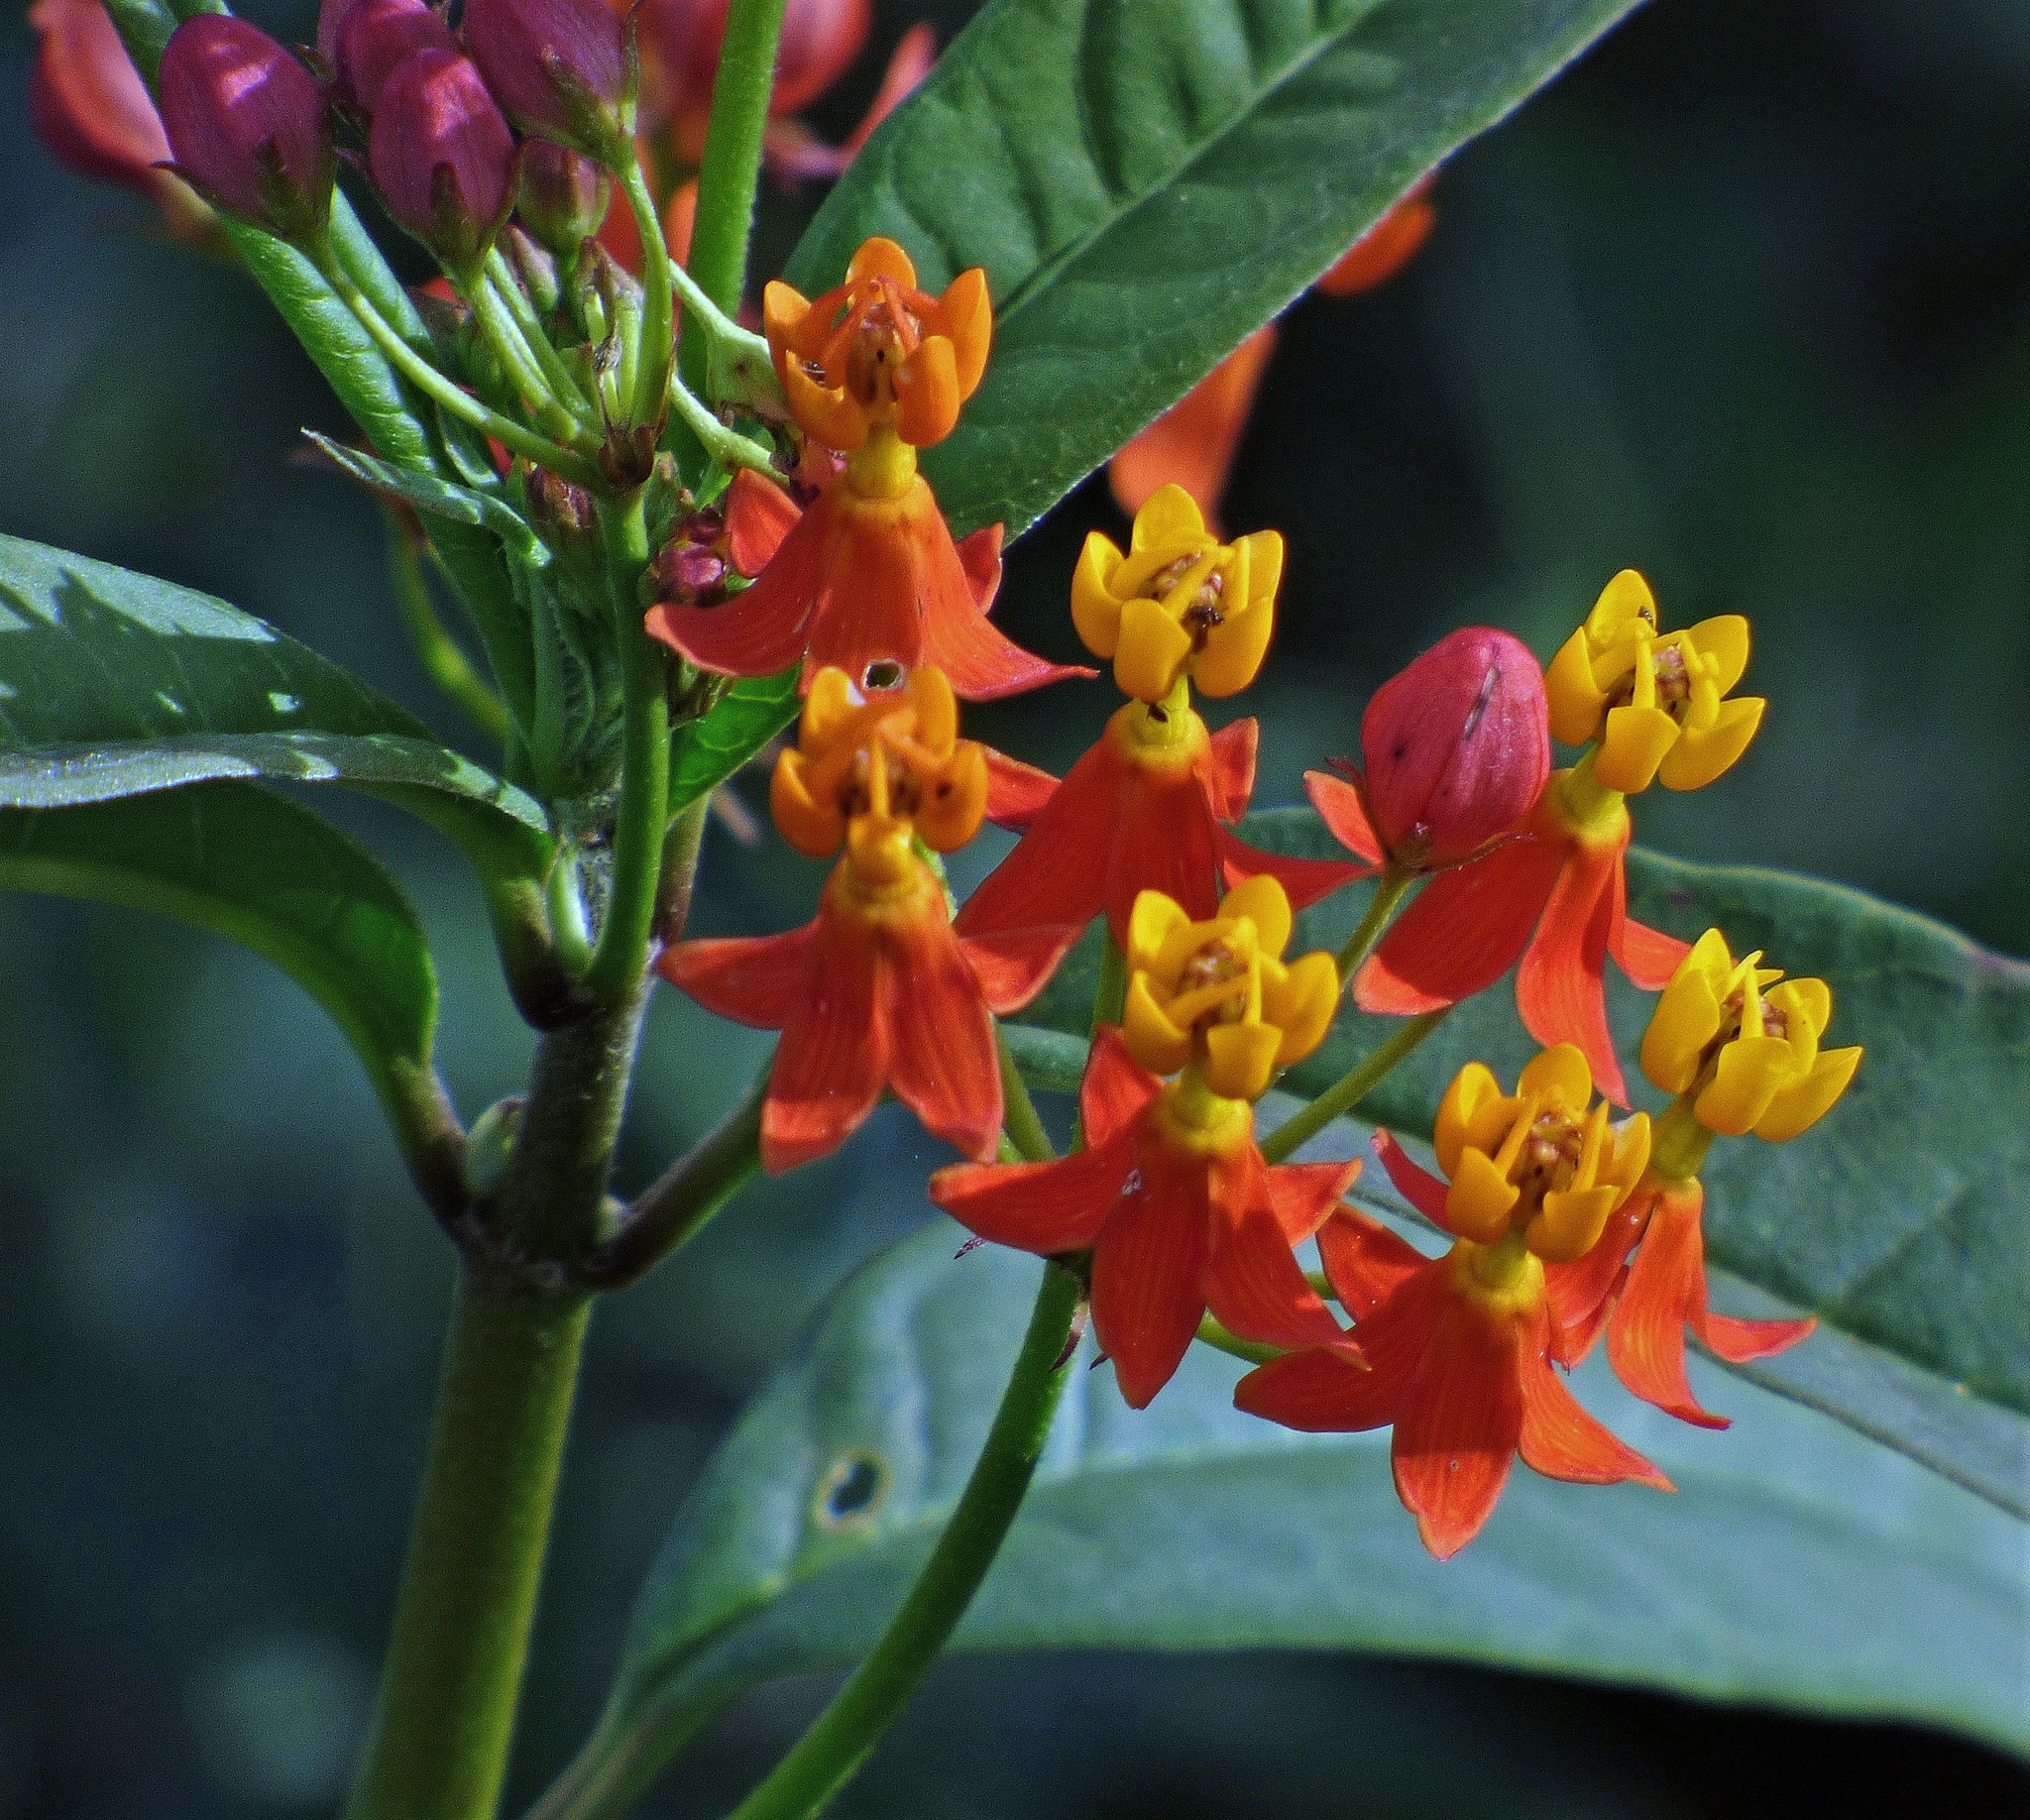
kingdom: Plantae
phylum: Tracheophyta
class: Magnoliopsida
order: Gentianales
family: Apocynaceae
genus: Asclepias
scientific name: Asclepias curassavica
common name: Bloodflower
